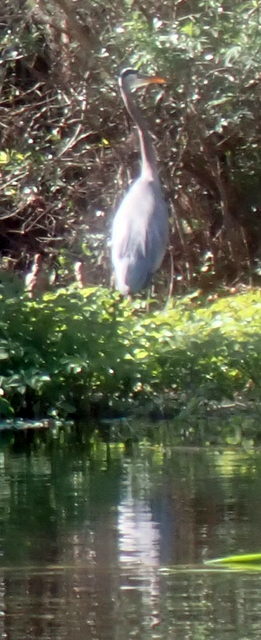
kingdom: Animalia
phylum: Chordata
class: Aves
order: Pelecaniformes
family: Ardeidae
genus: Ardea
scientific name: Ardea herodias
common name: Great blue heron
